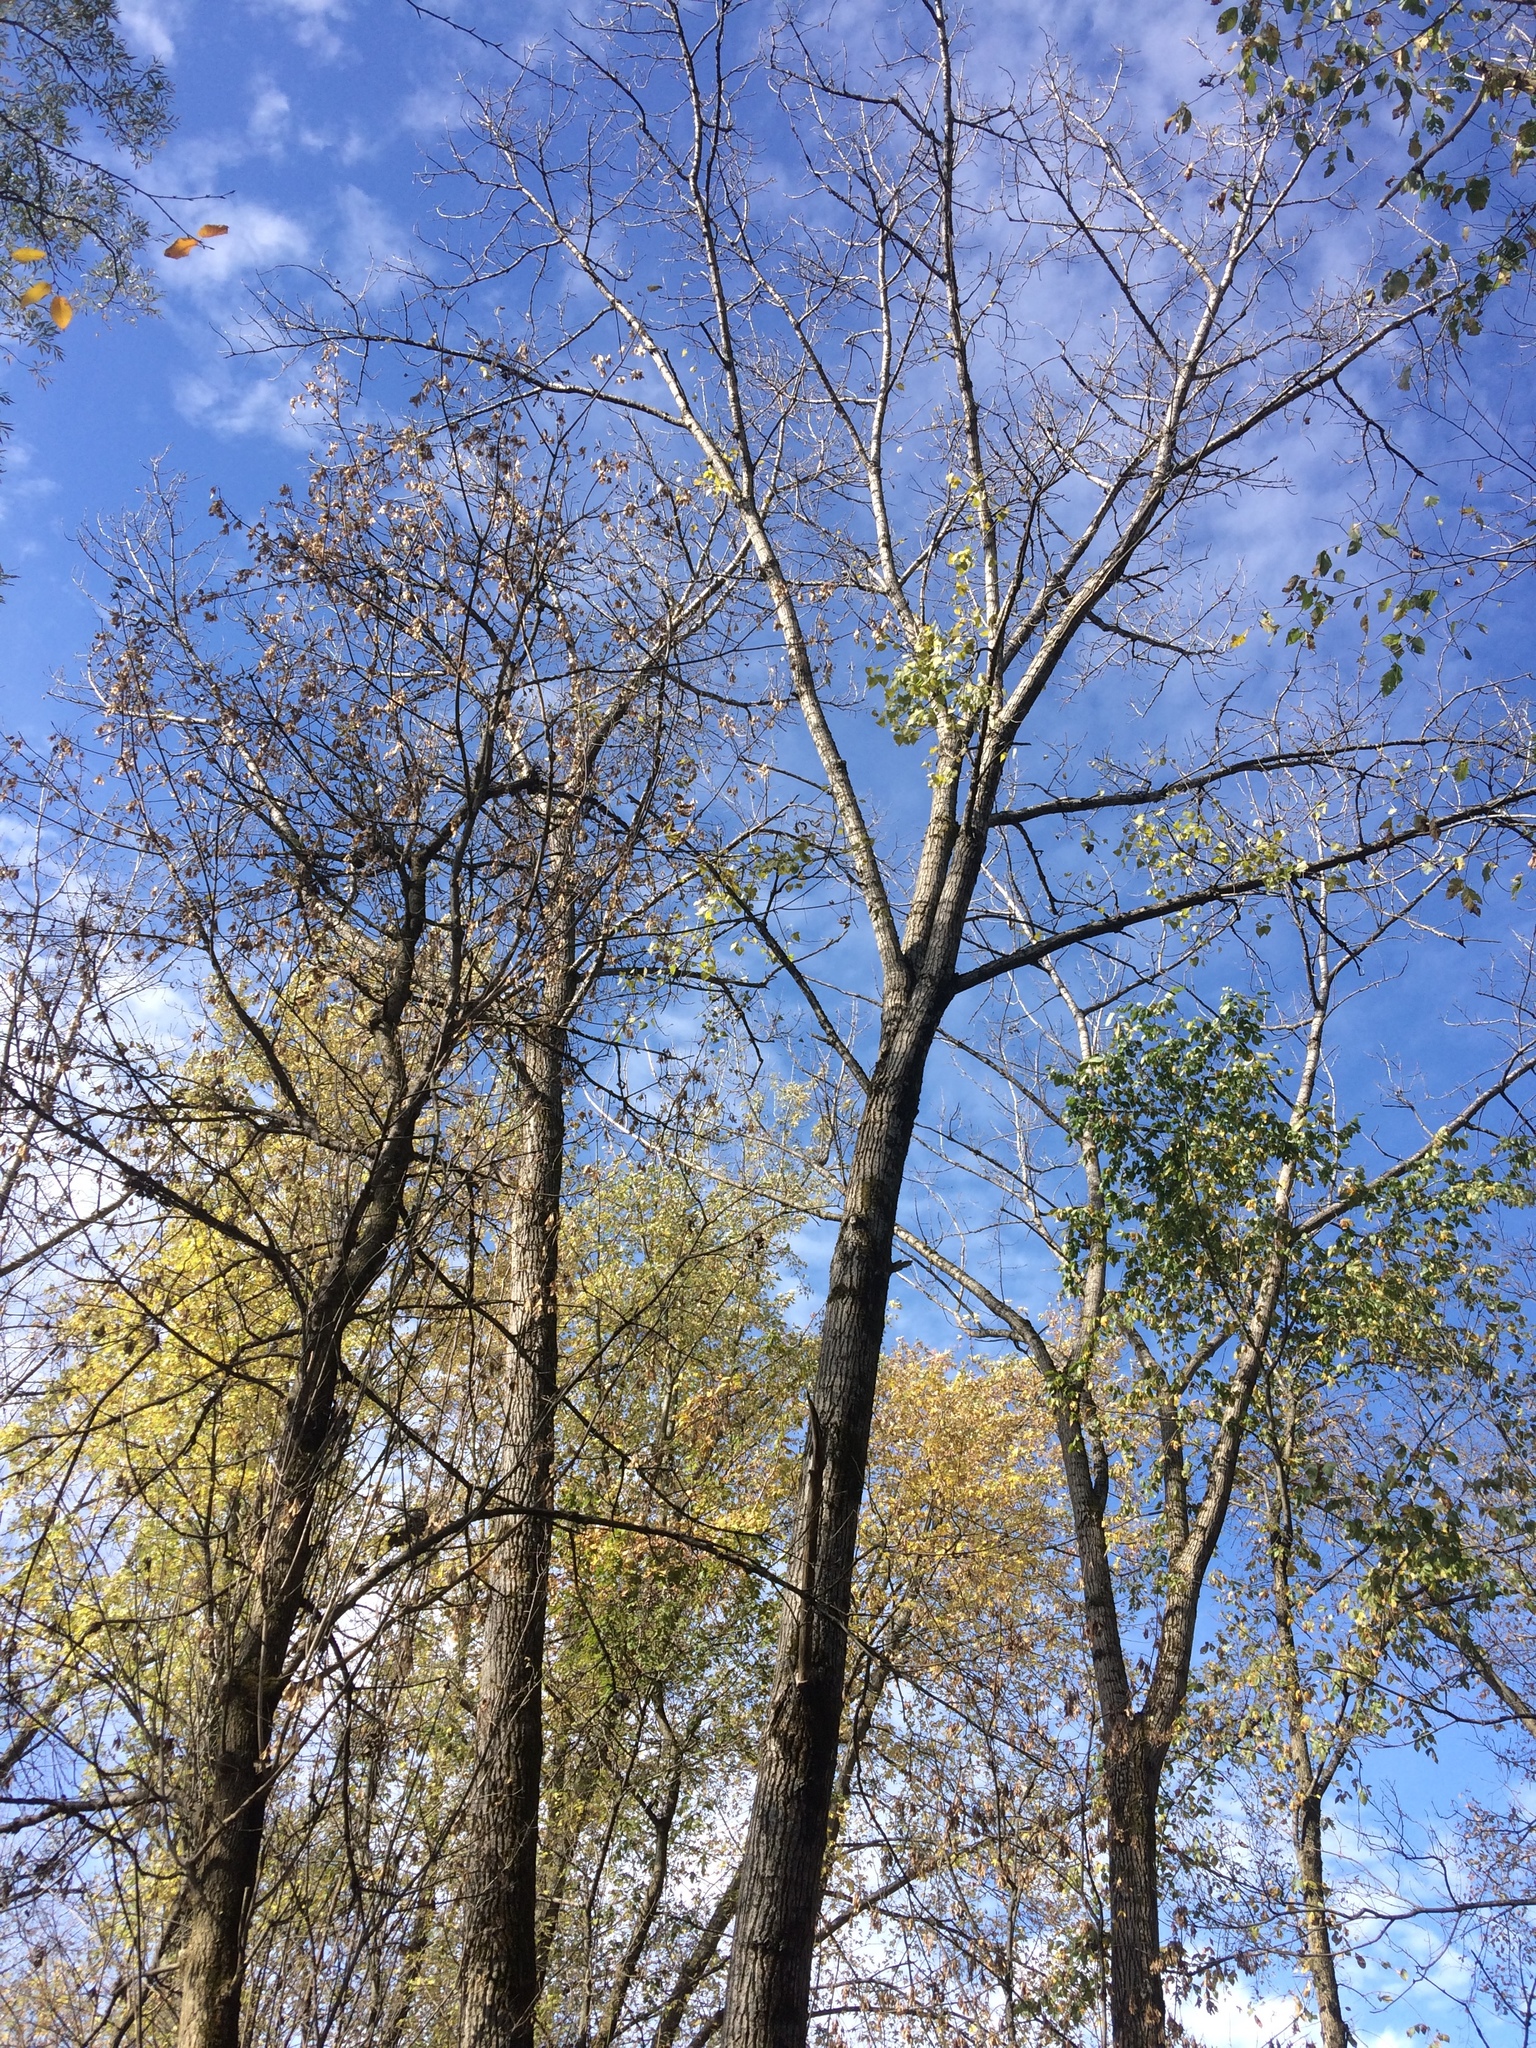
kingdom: Plantae
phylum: Tracheophyta
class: Magnoliopsida
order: Malpighiales
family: Salicaceae
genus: Populus
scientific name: Populus deltoides
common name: Eastern cottonwood
